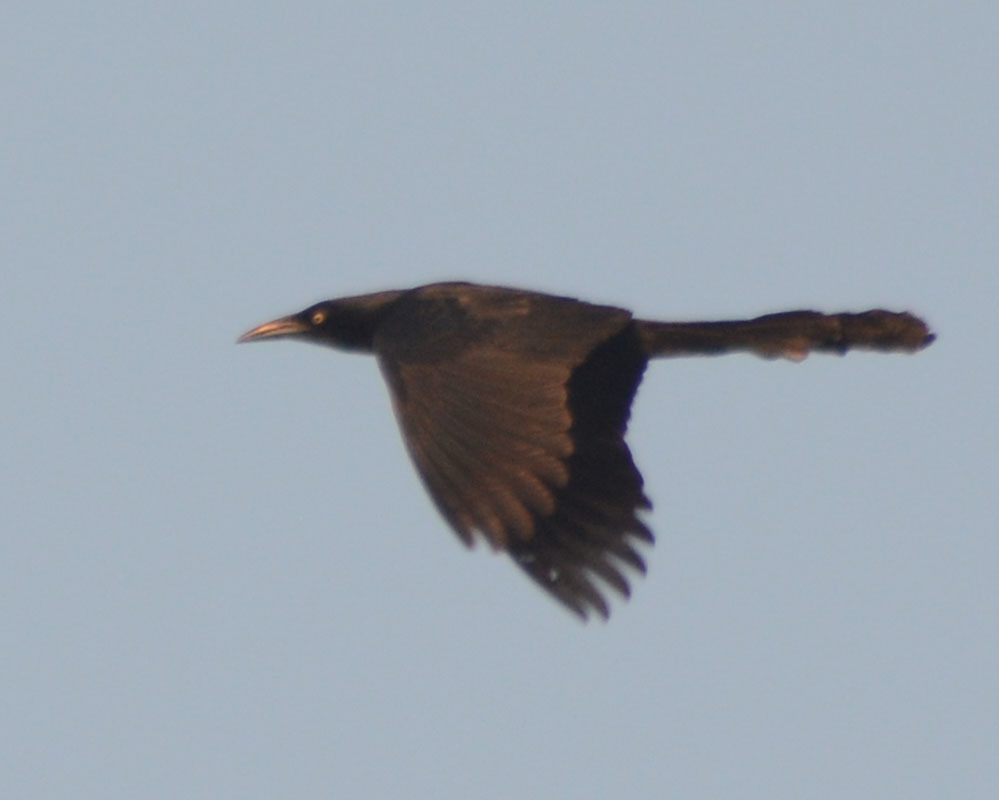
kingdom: Animalia
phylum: Chordata
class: Aves
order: Passeriformes
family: Icteridae
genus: Quiscalus
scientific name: Quiscalus mexicanus
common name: Great-tailed grackle
